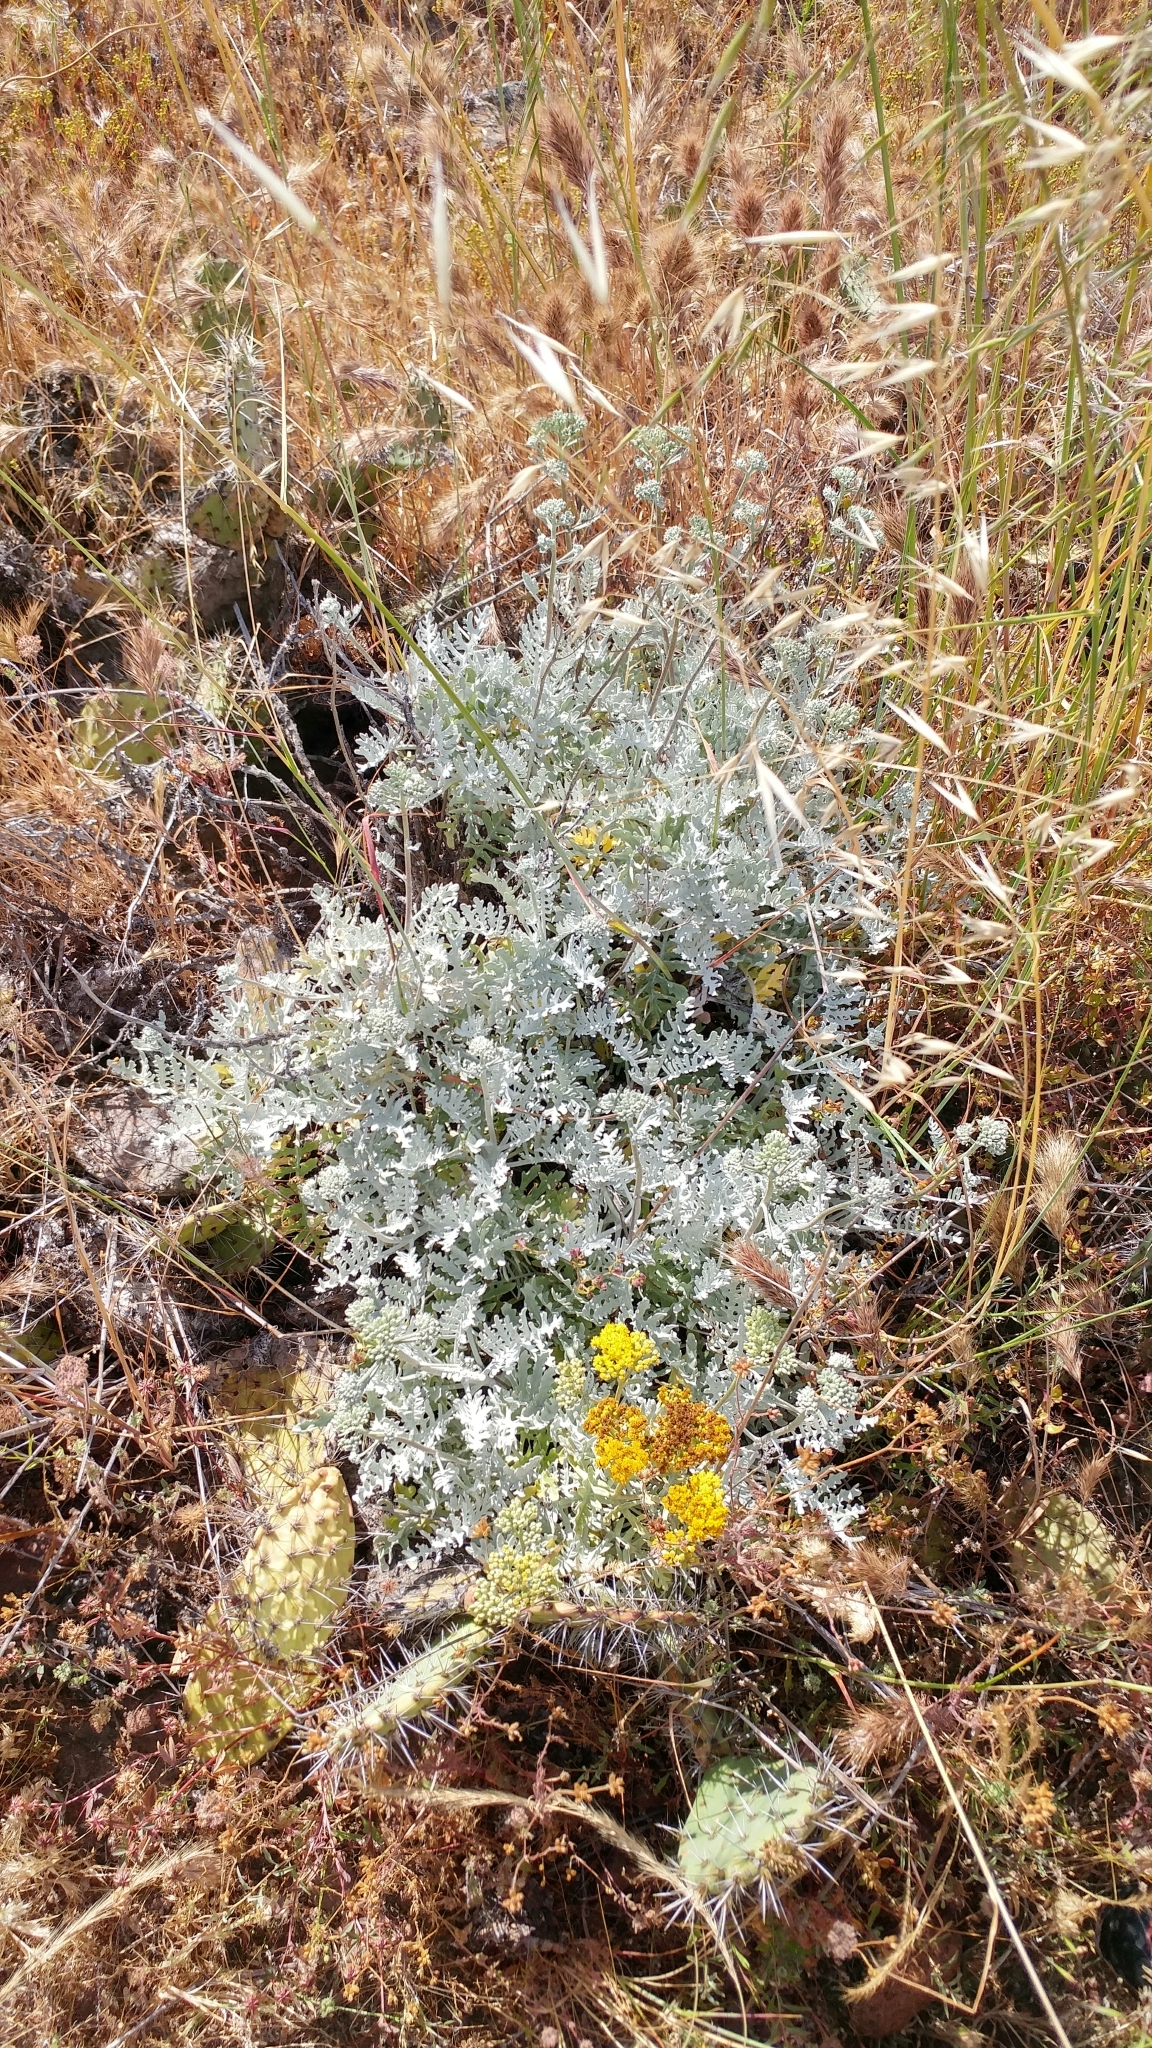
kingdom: Plantae
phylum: Tracheophyta
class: Magnoliopsida
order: Asterales
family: Asteraceae
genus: Constancea
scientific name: Constancea nevinii
